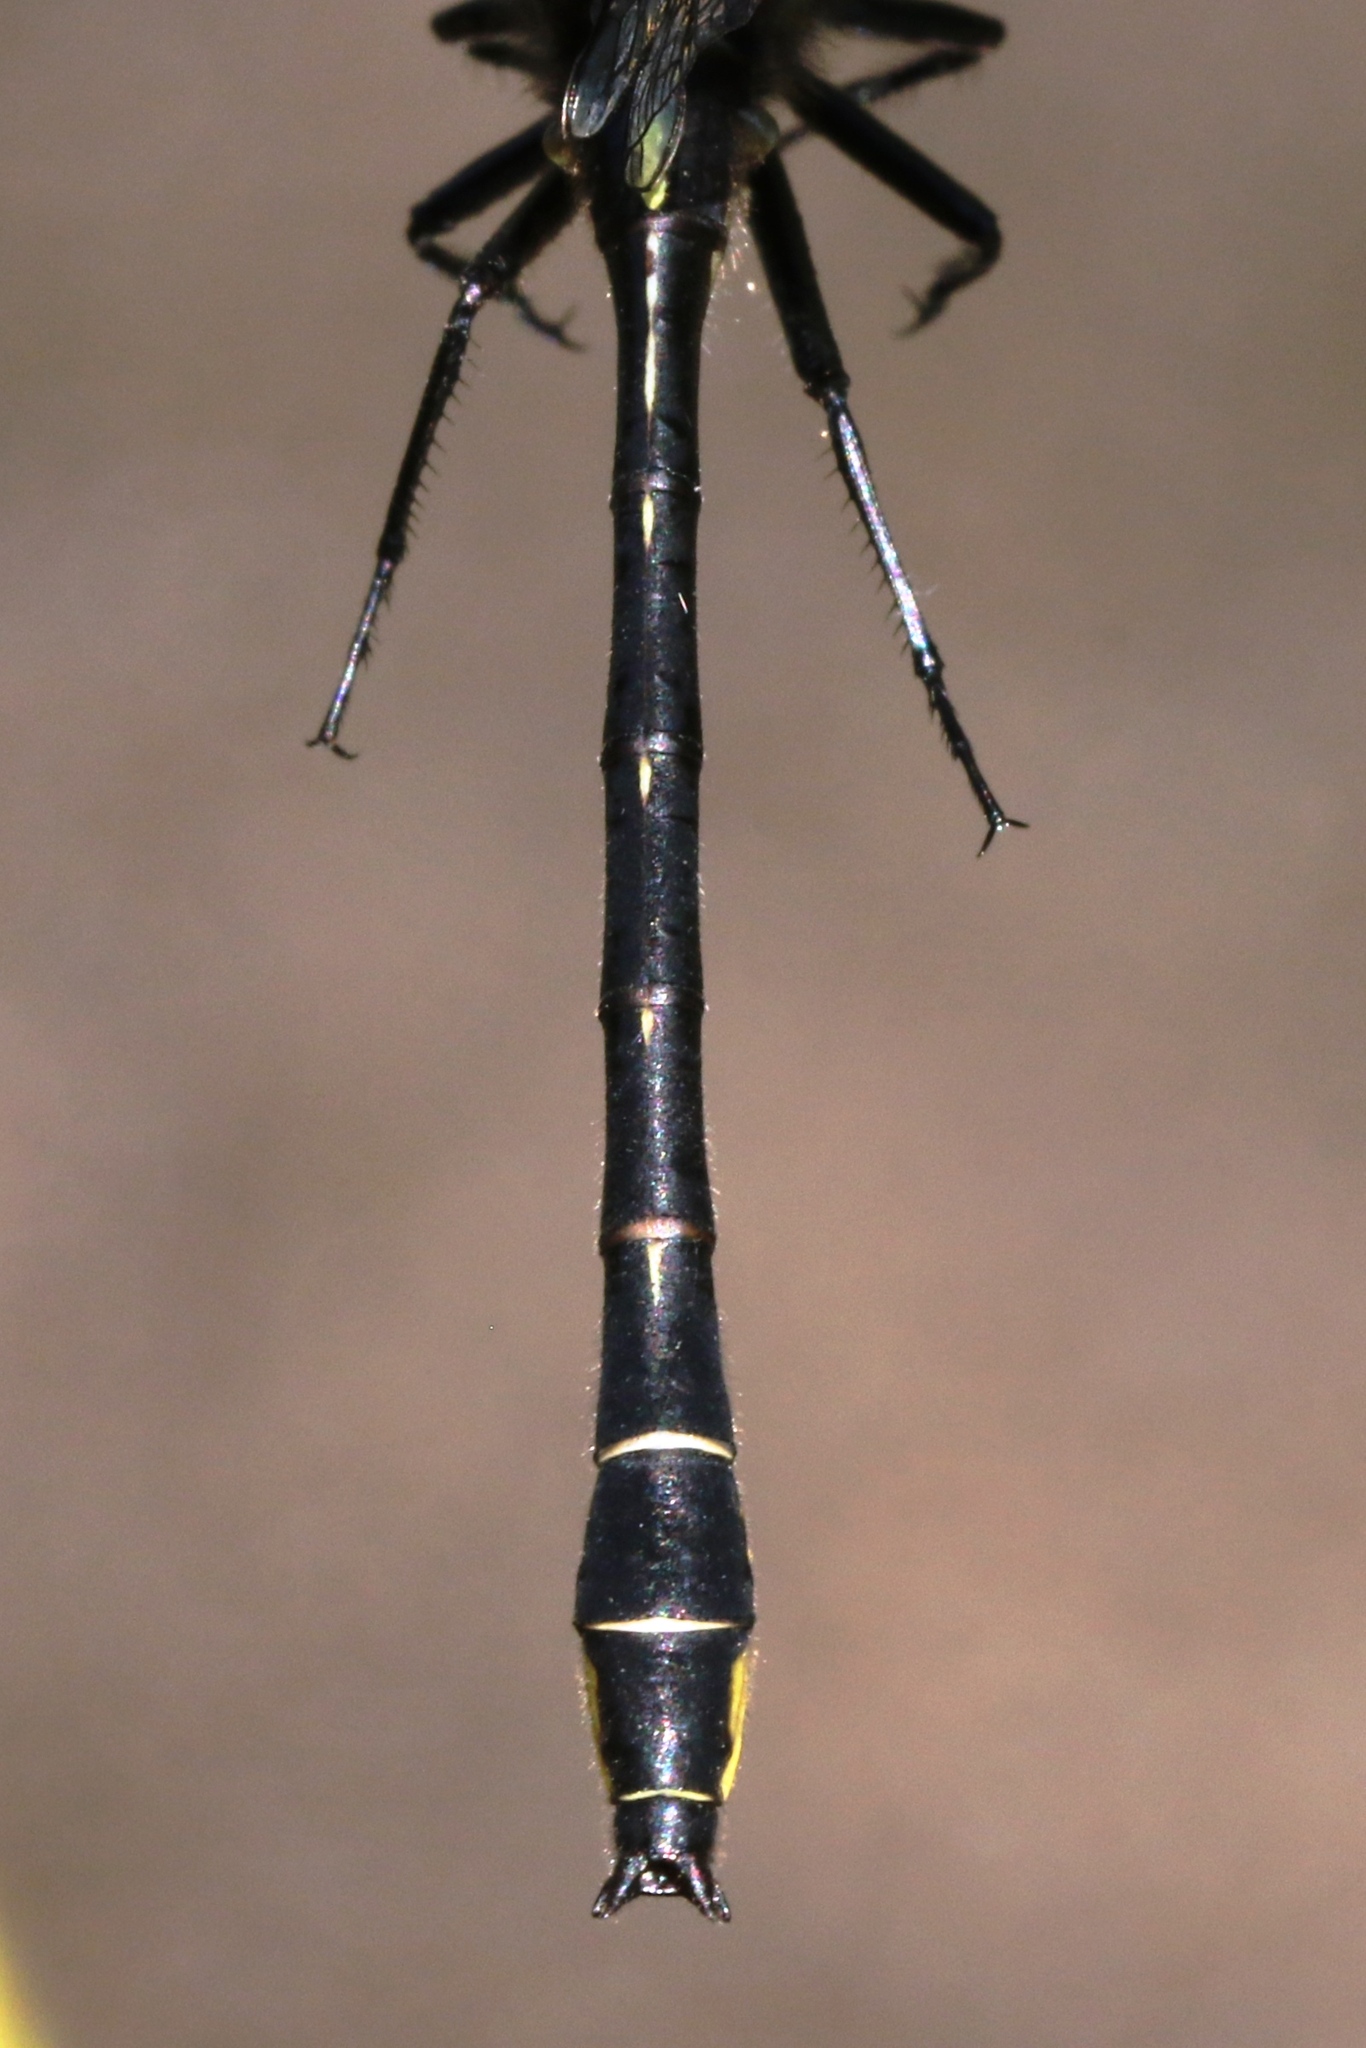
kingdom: Animalia
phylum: Arthropoda
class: Insecta
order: Odonata
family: Gomphidae
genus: Phanogomphus
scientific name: Phanogomphus quadricolor
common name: Rapids clubtail
